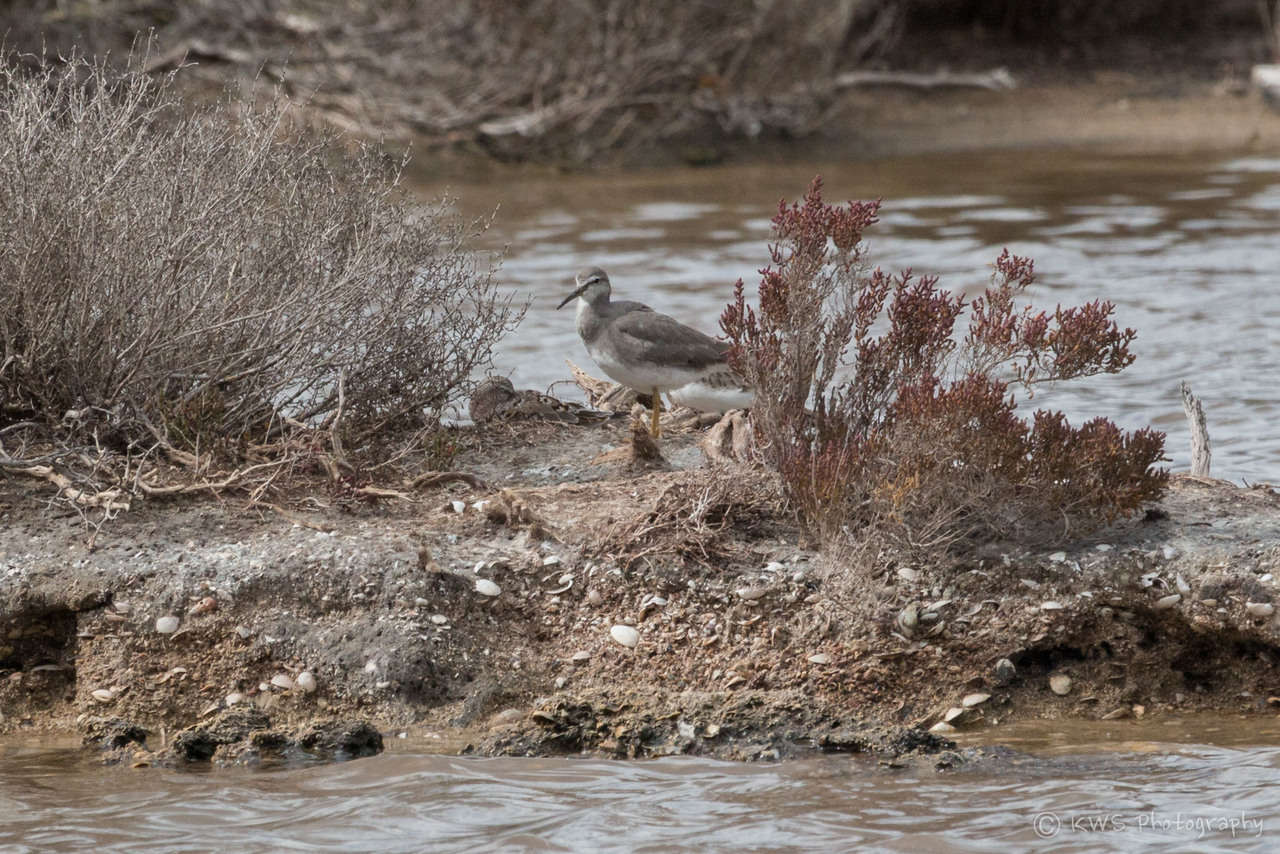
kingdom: Animalia
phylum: Chordata
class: Aves
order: Charadriiformes
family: Scolopacidae
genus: Tringa
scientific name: Tringa brevipes
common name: Grey-tailed tattler
